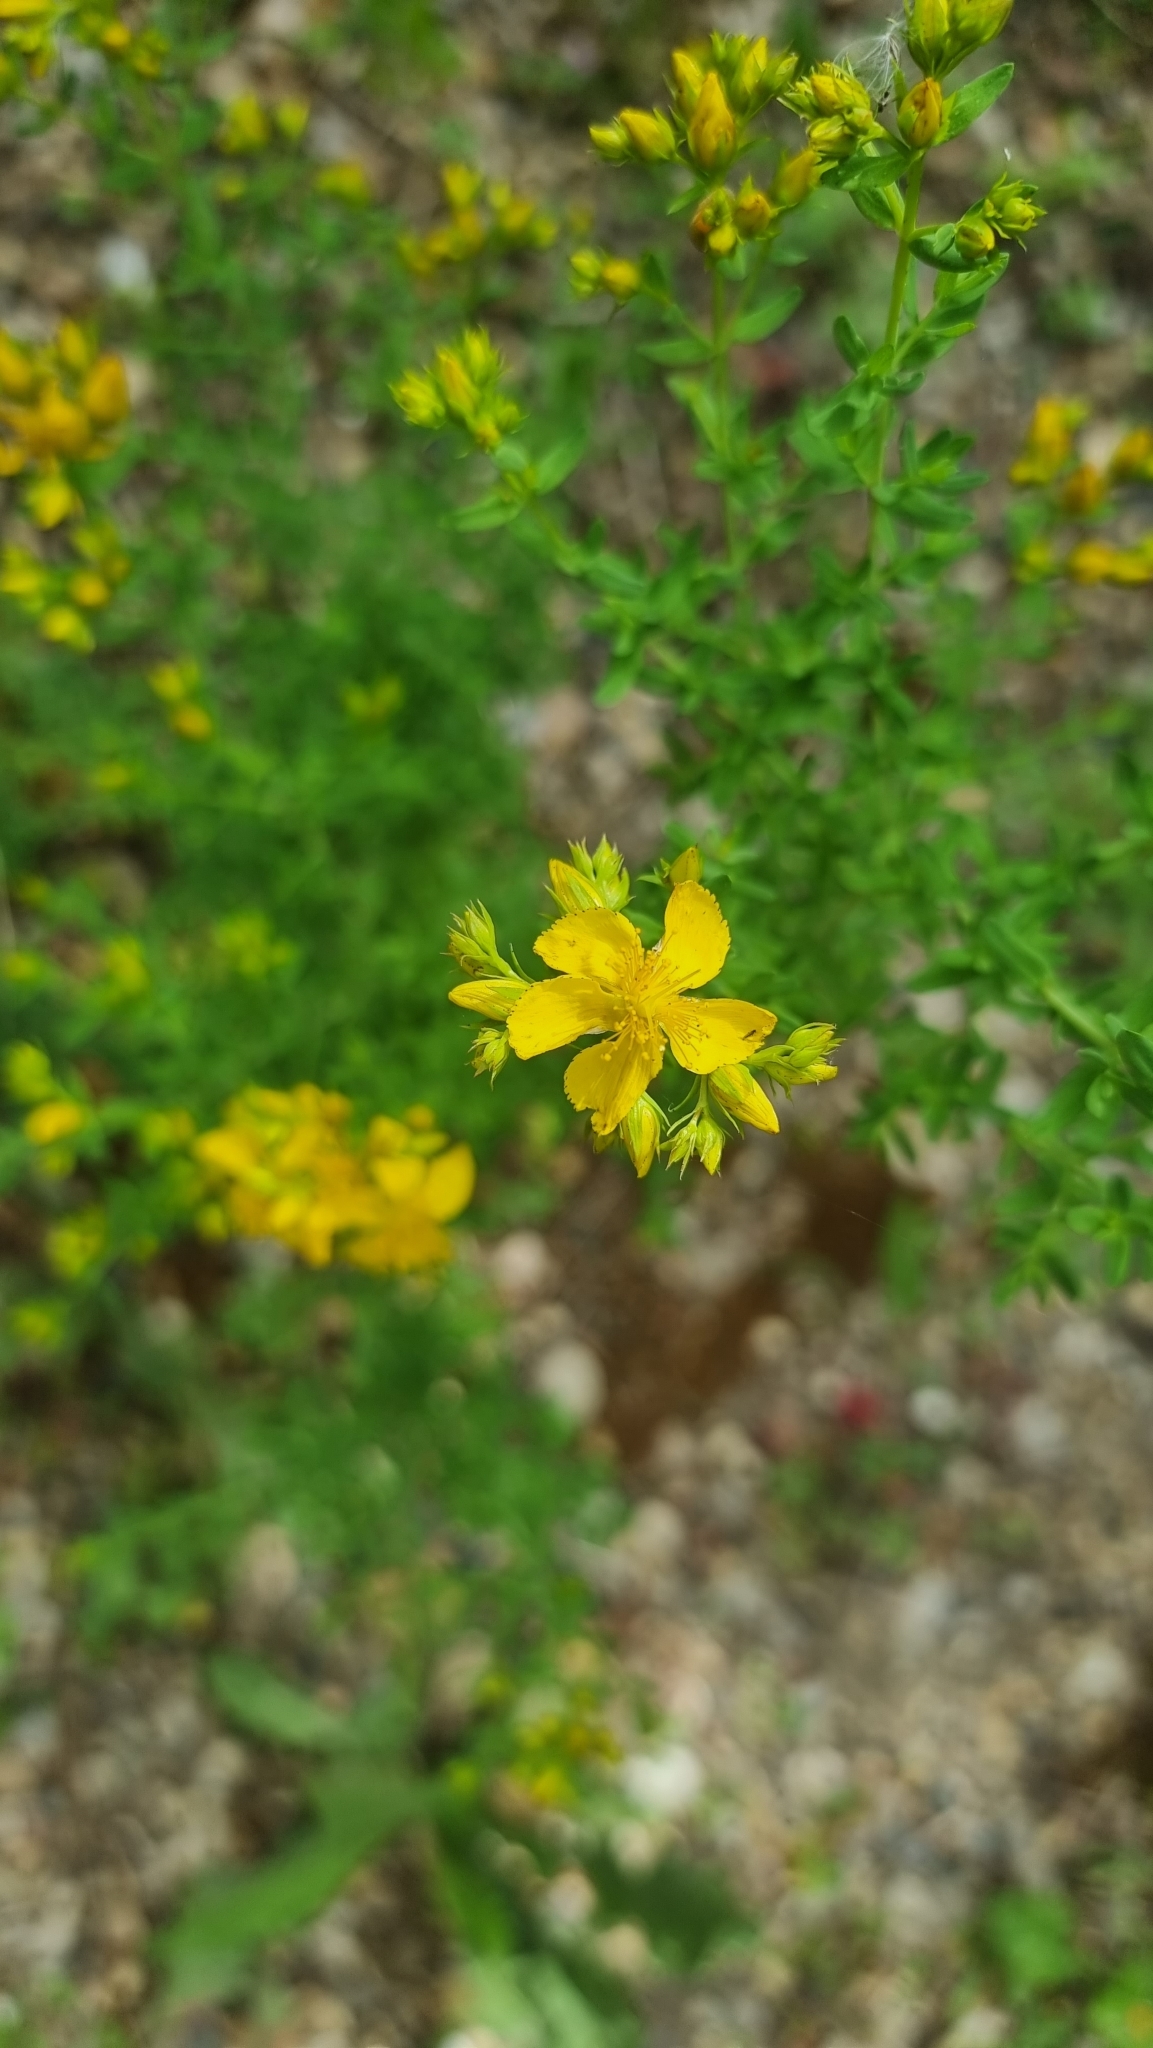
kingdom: Plantae
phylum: Tracheophyta
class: Magnoliopsida
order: Malpighiales
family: Hypericaceae
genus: Hypericum
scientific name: Hypericum perforatum
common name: Common st. johnswort
